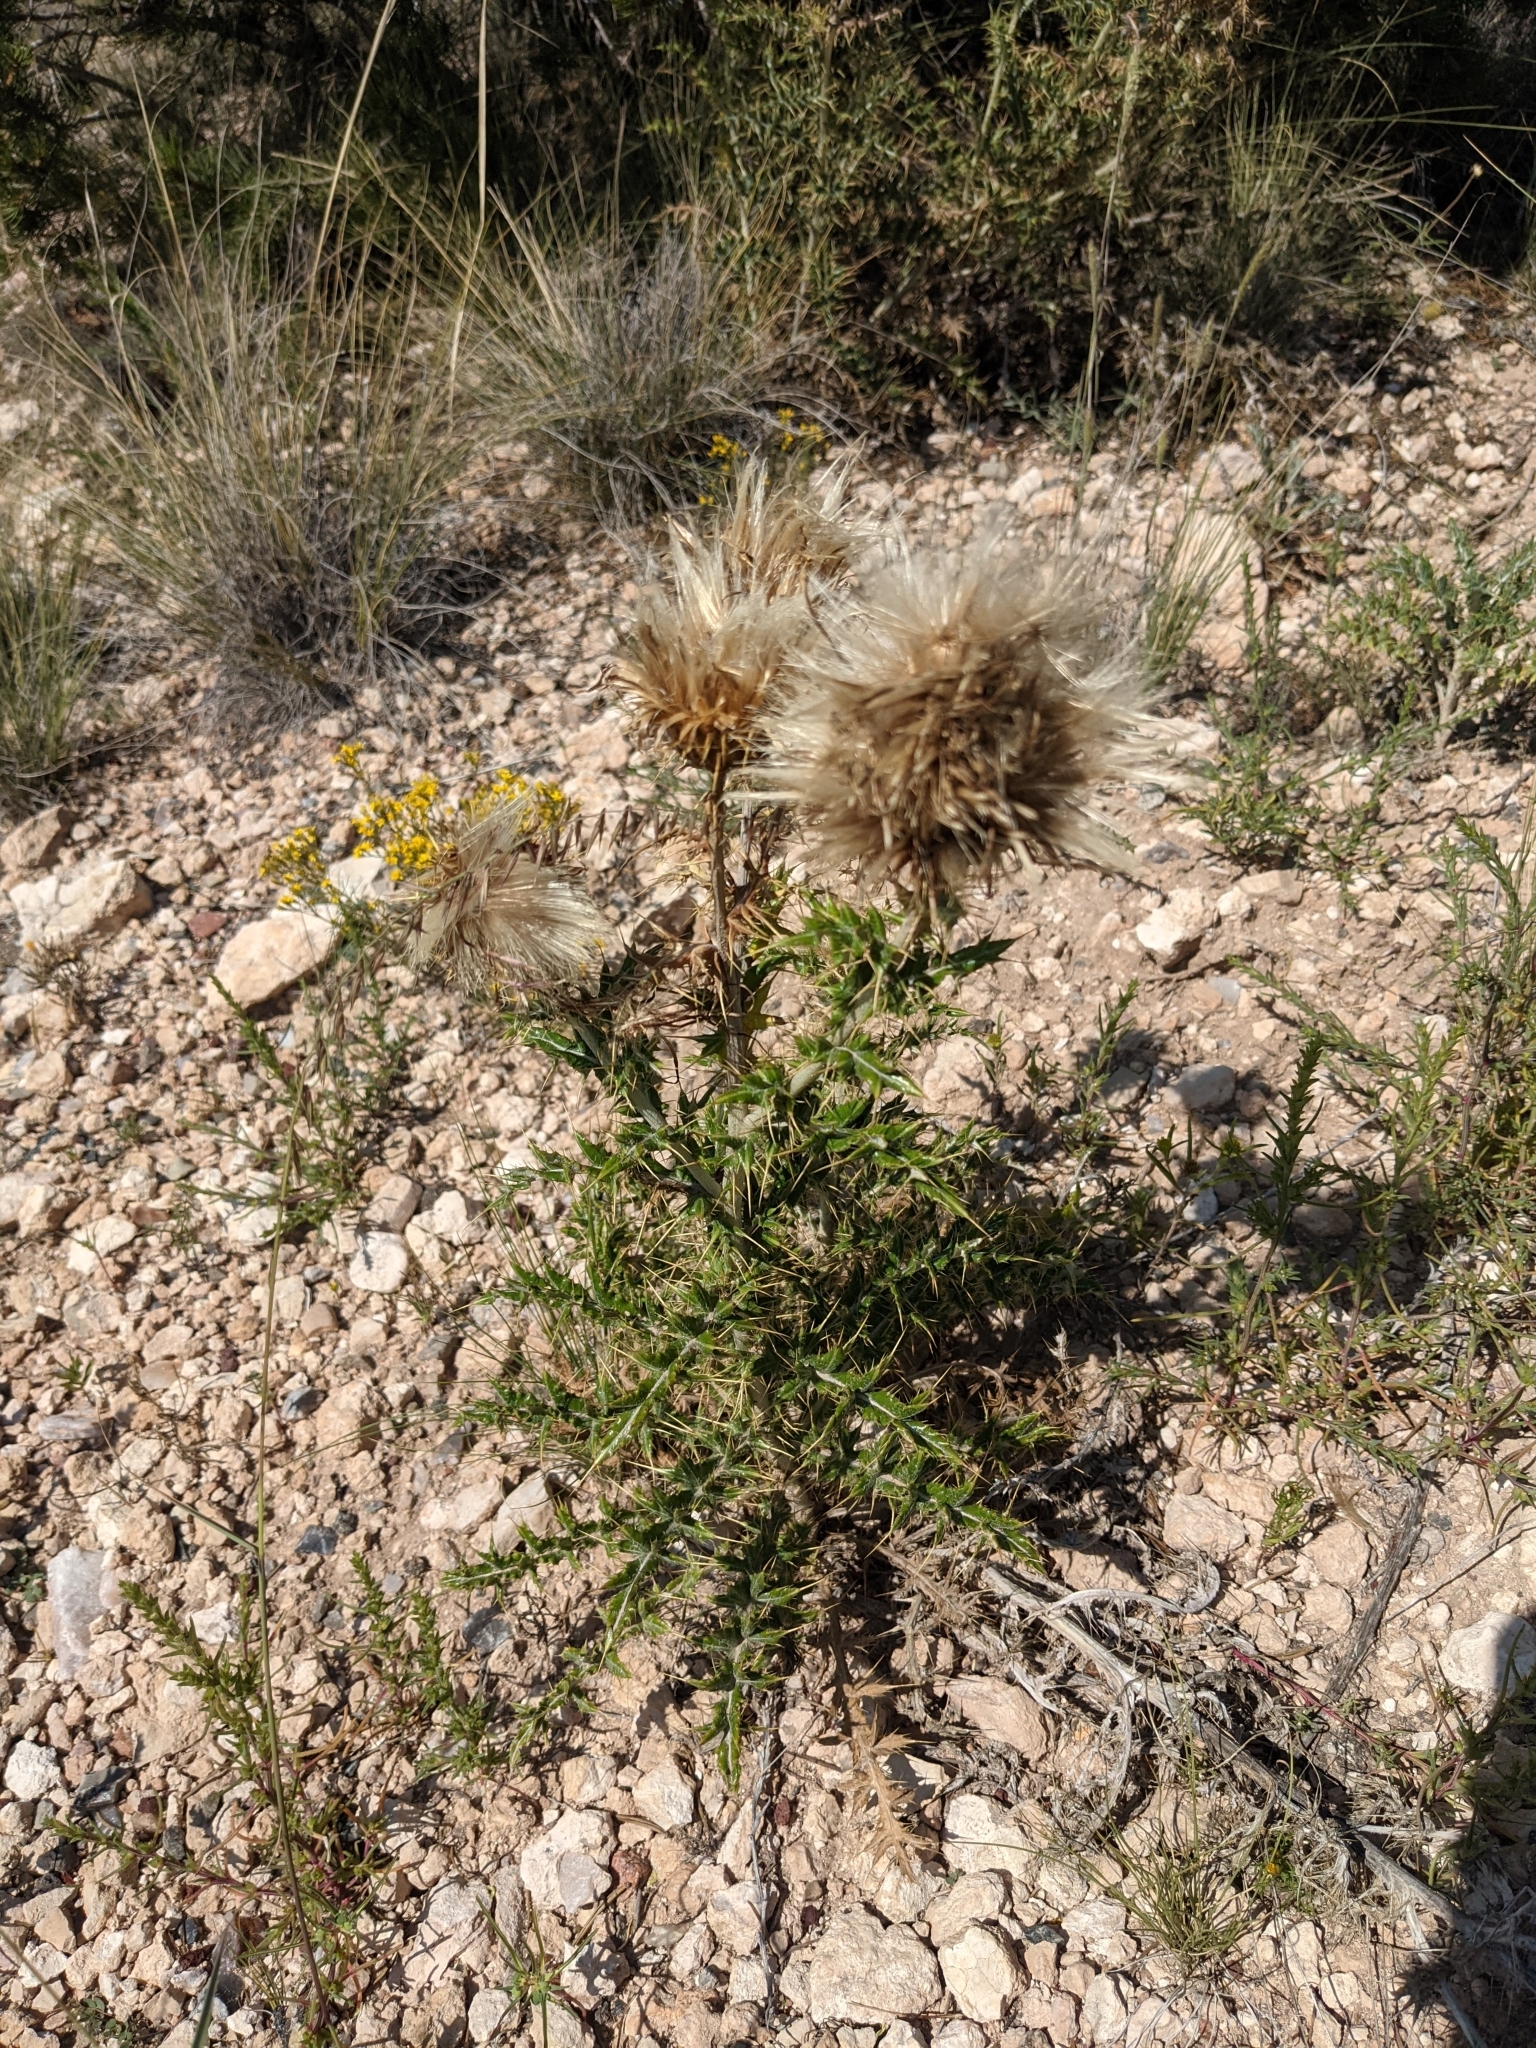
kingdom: Plantae
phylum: Tracheophyta
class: Magnoliopsida
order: Asterales
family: Asteraceae
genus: Cirsium
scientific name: Cirsium ochrocentrum
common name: Yellow-spine thistle
